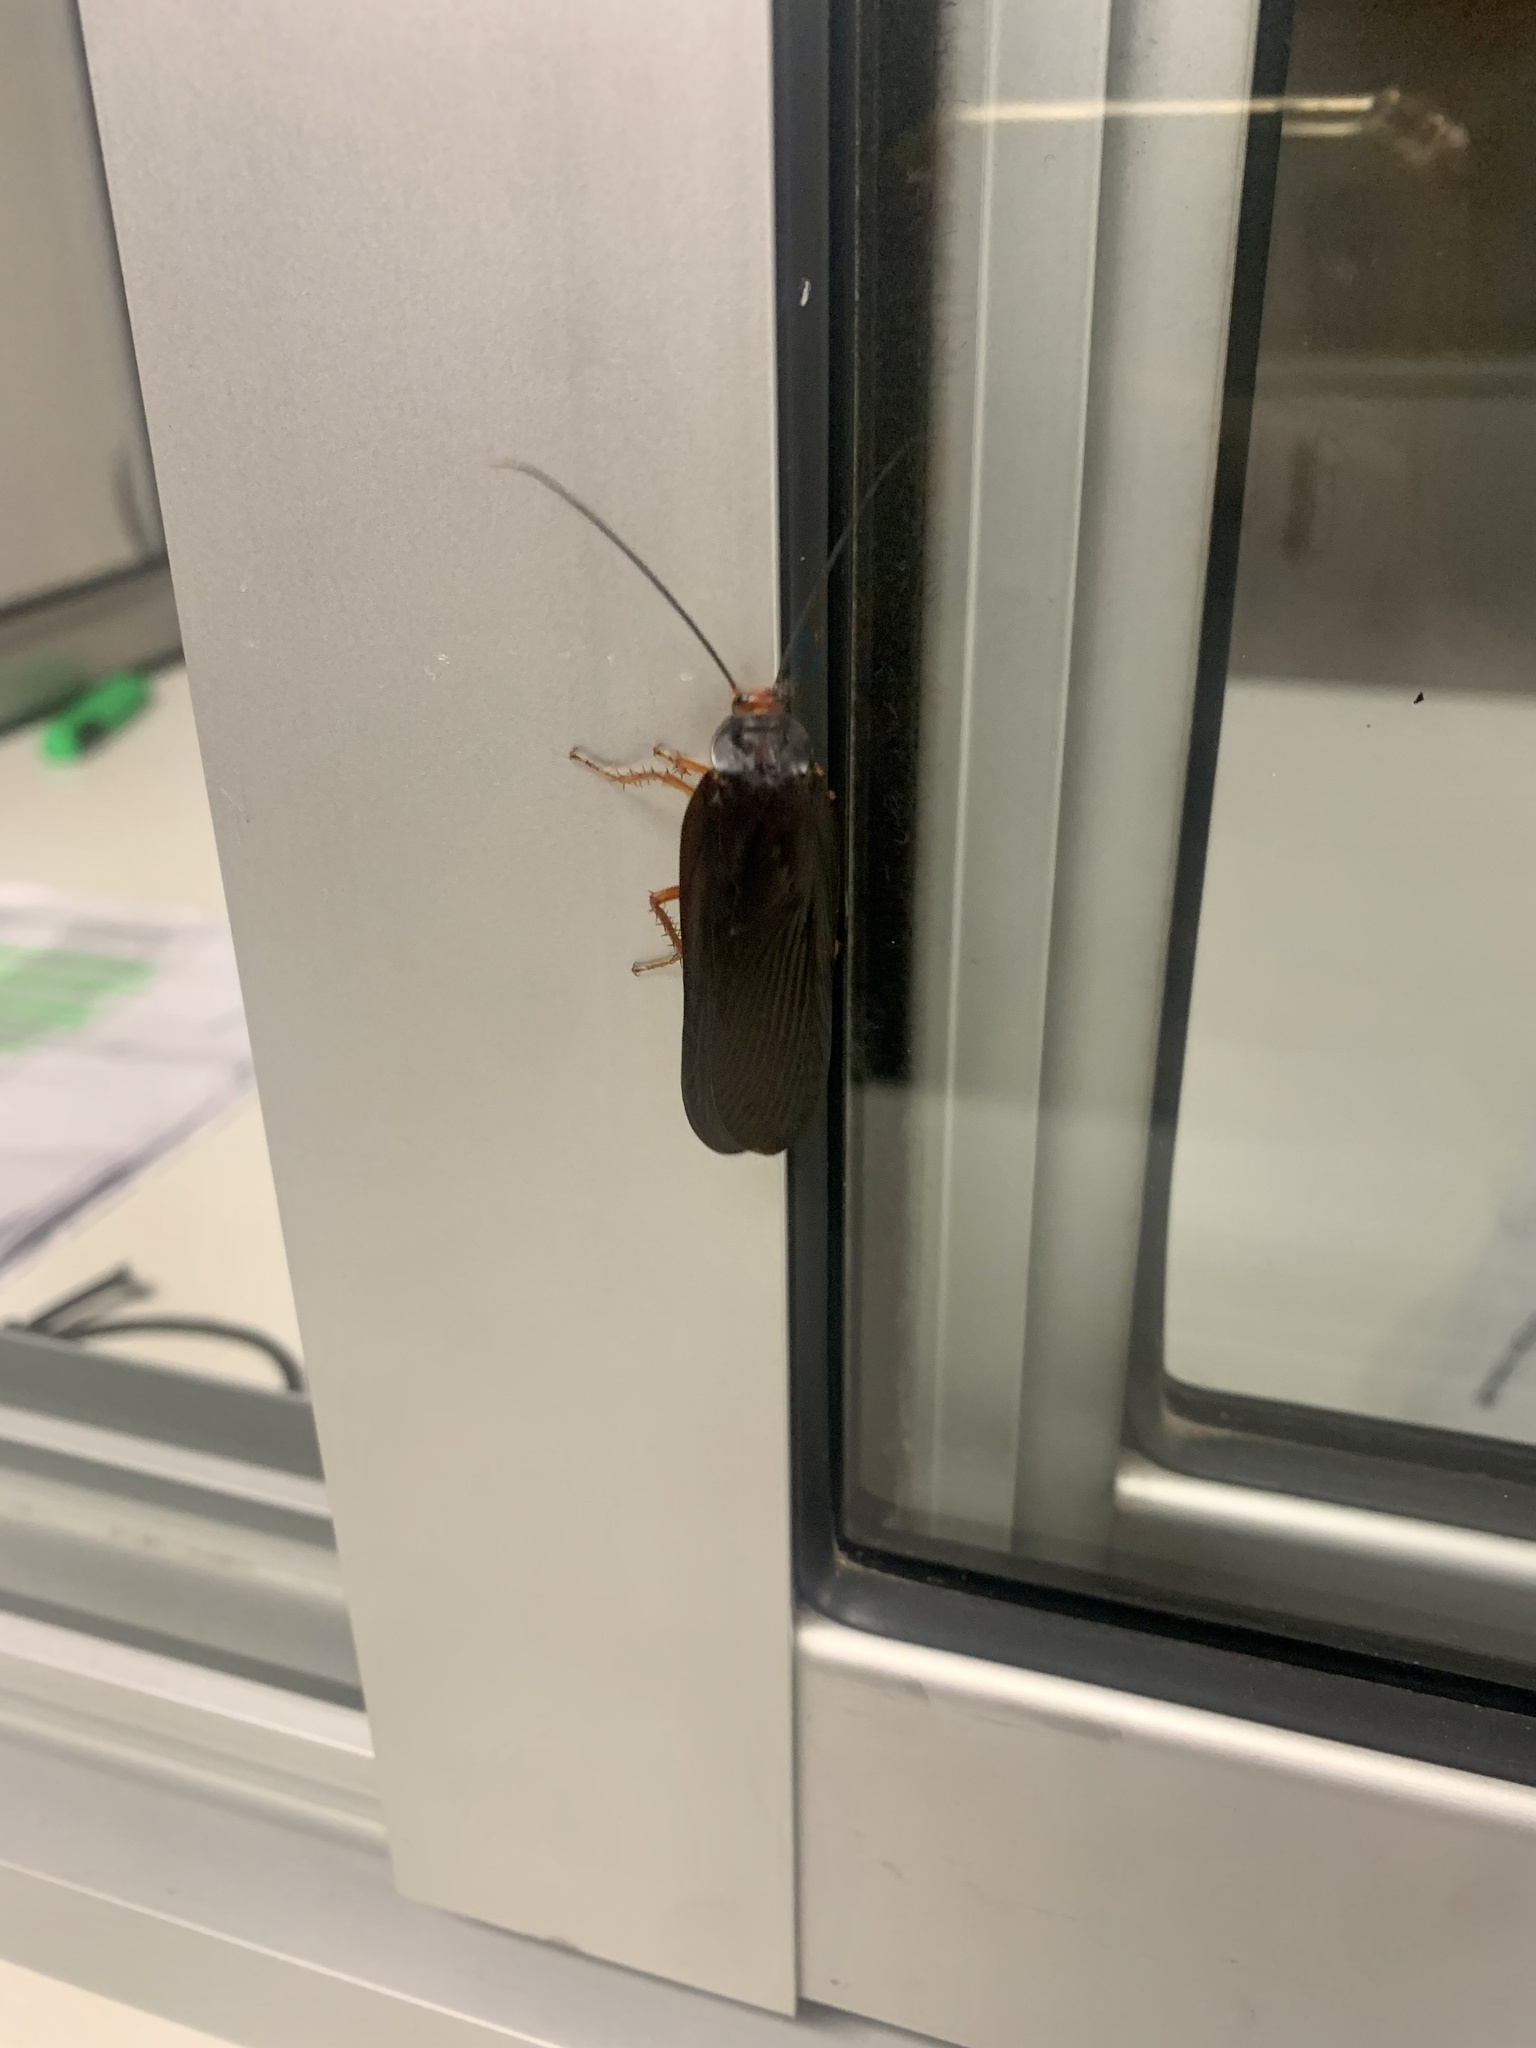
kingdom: Animalia
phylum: Arthropoda
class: Insecta
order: Blattodea
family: Blattidae
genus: Deropeltis
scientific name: Deropeltis erythrocephala
